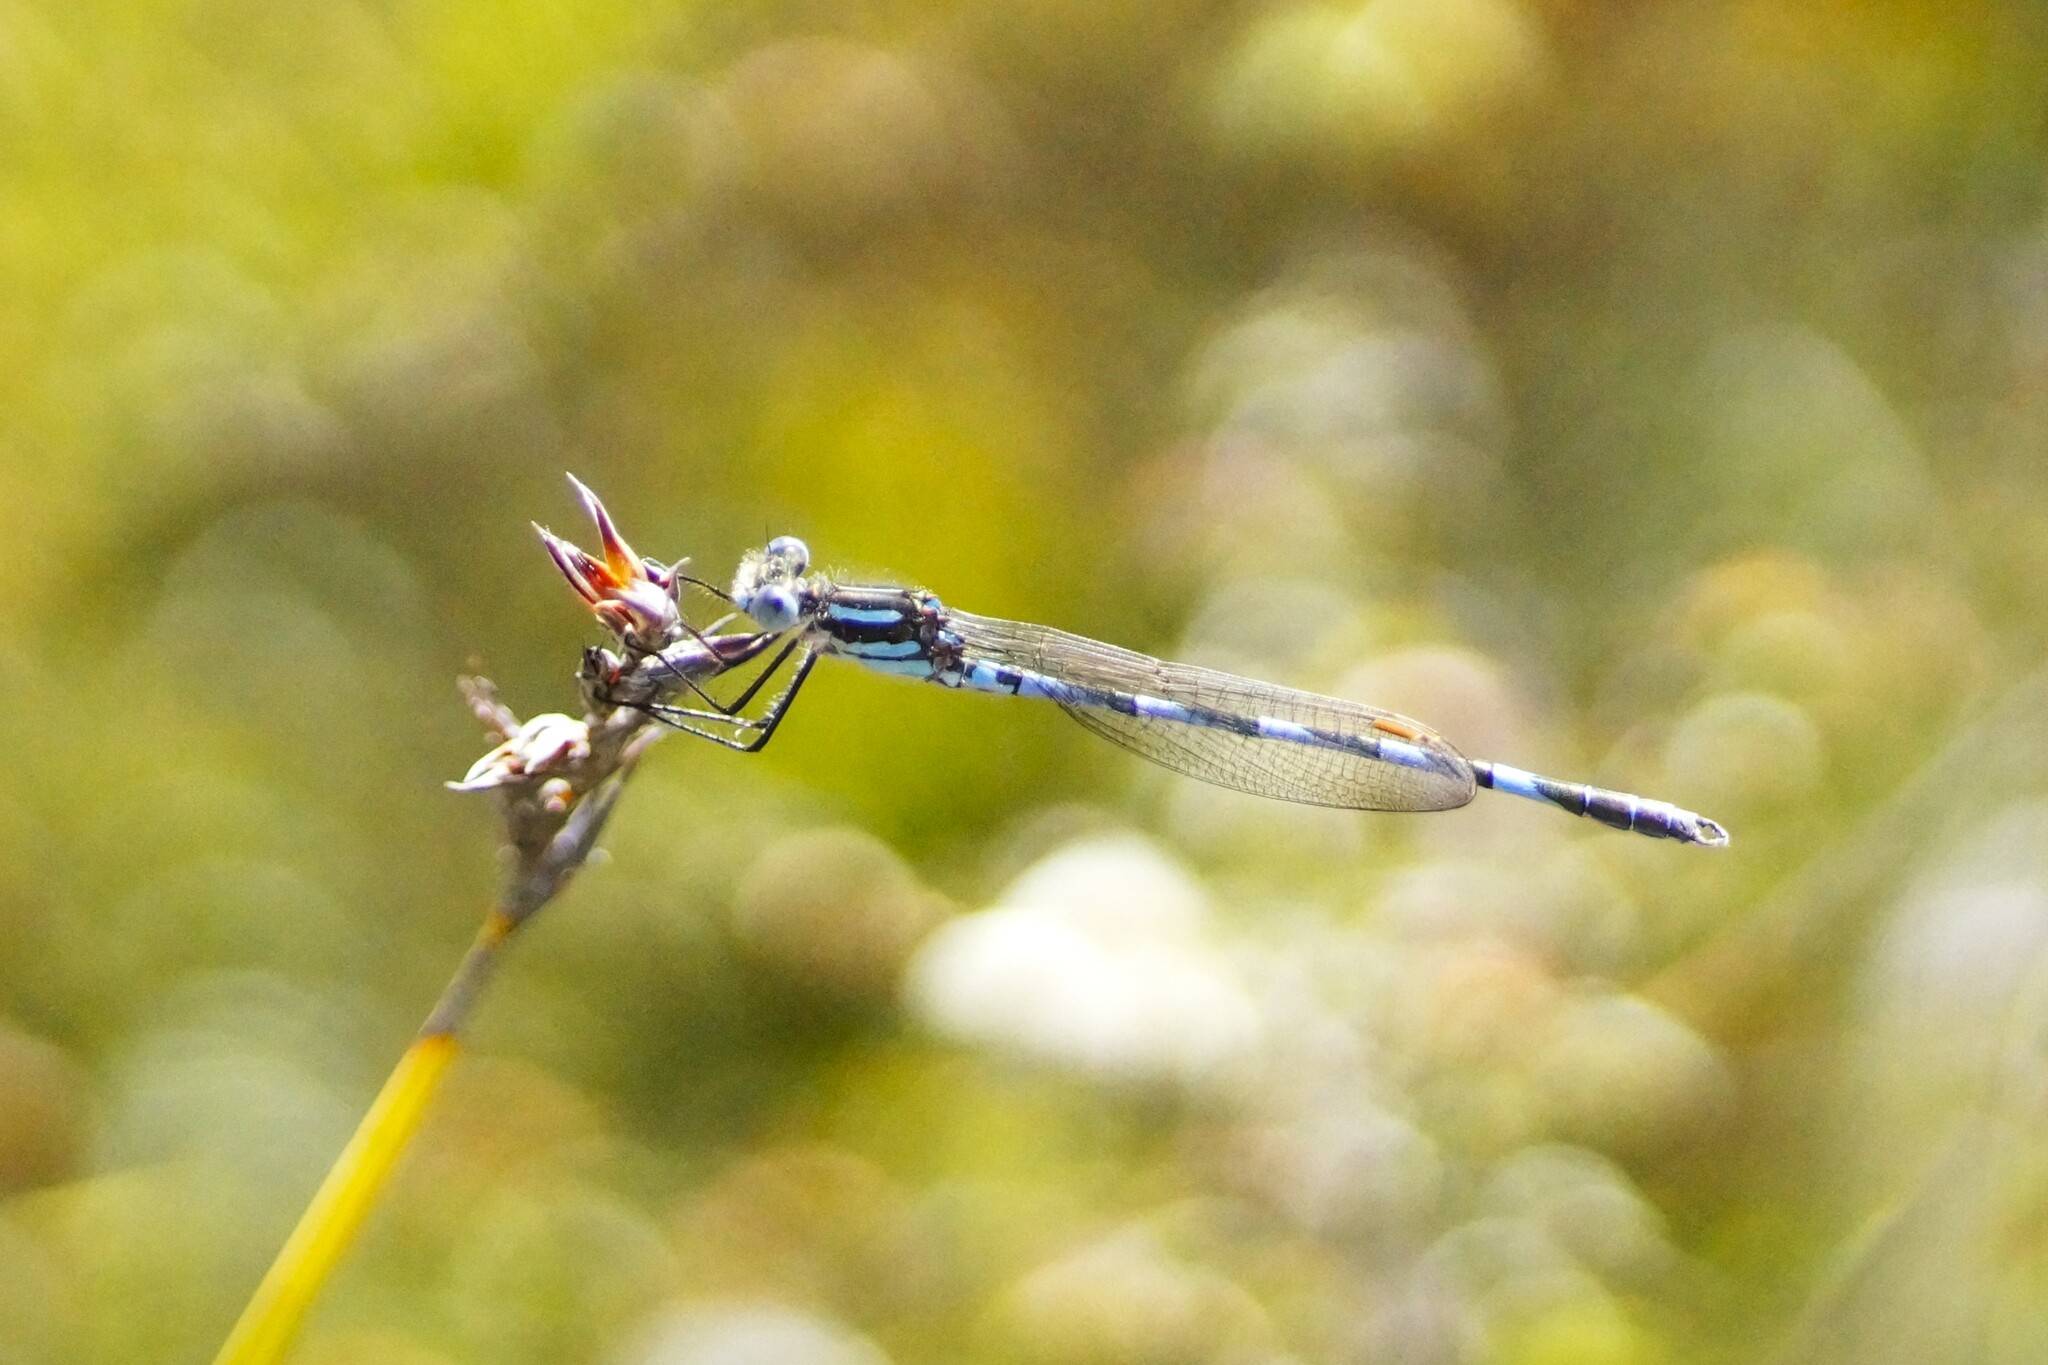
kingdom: Animalia
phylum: Arthropoda
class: Insecta
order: Odonata
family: Lestidae
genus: Austrolestes
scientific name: Austrolestes annulosus
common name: Blue ringtail
